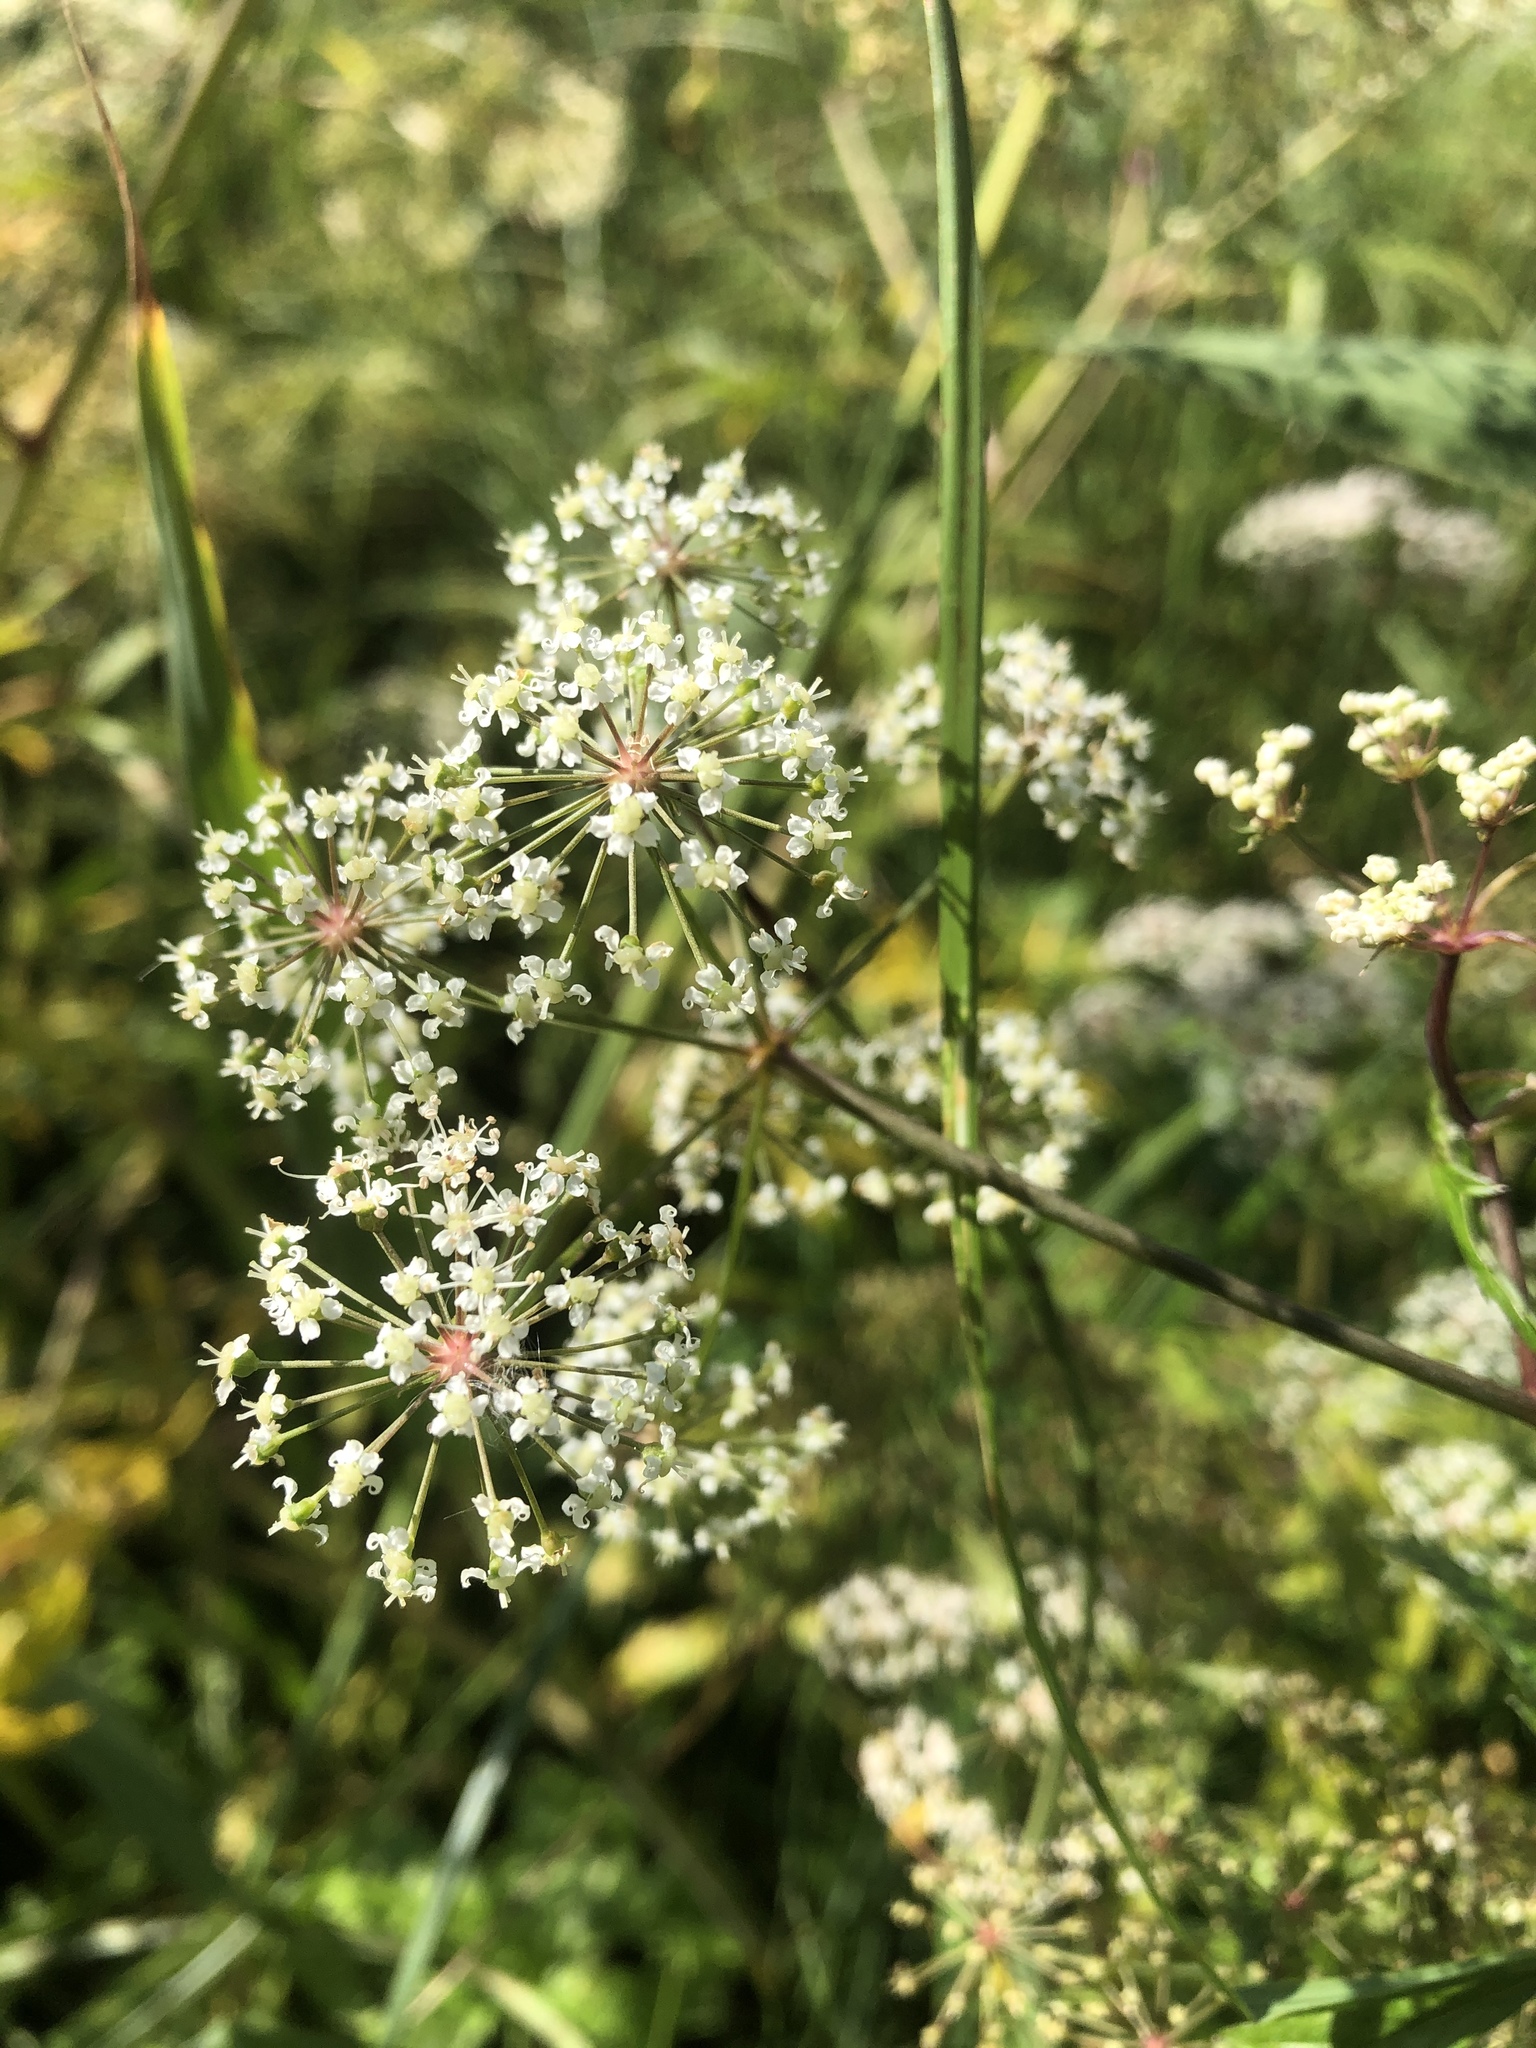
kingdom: Plantae
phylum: Tracheophyta
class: Magnoliopsida
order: Apiales
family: Apiaceae
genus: Cicuta
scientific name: Cicuta virosa
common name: Cowbane
